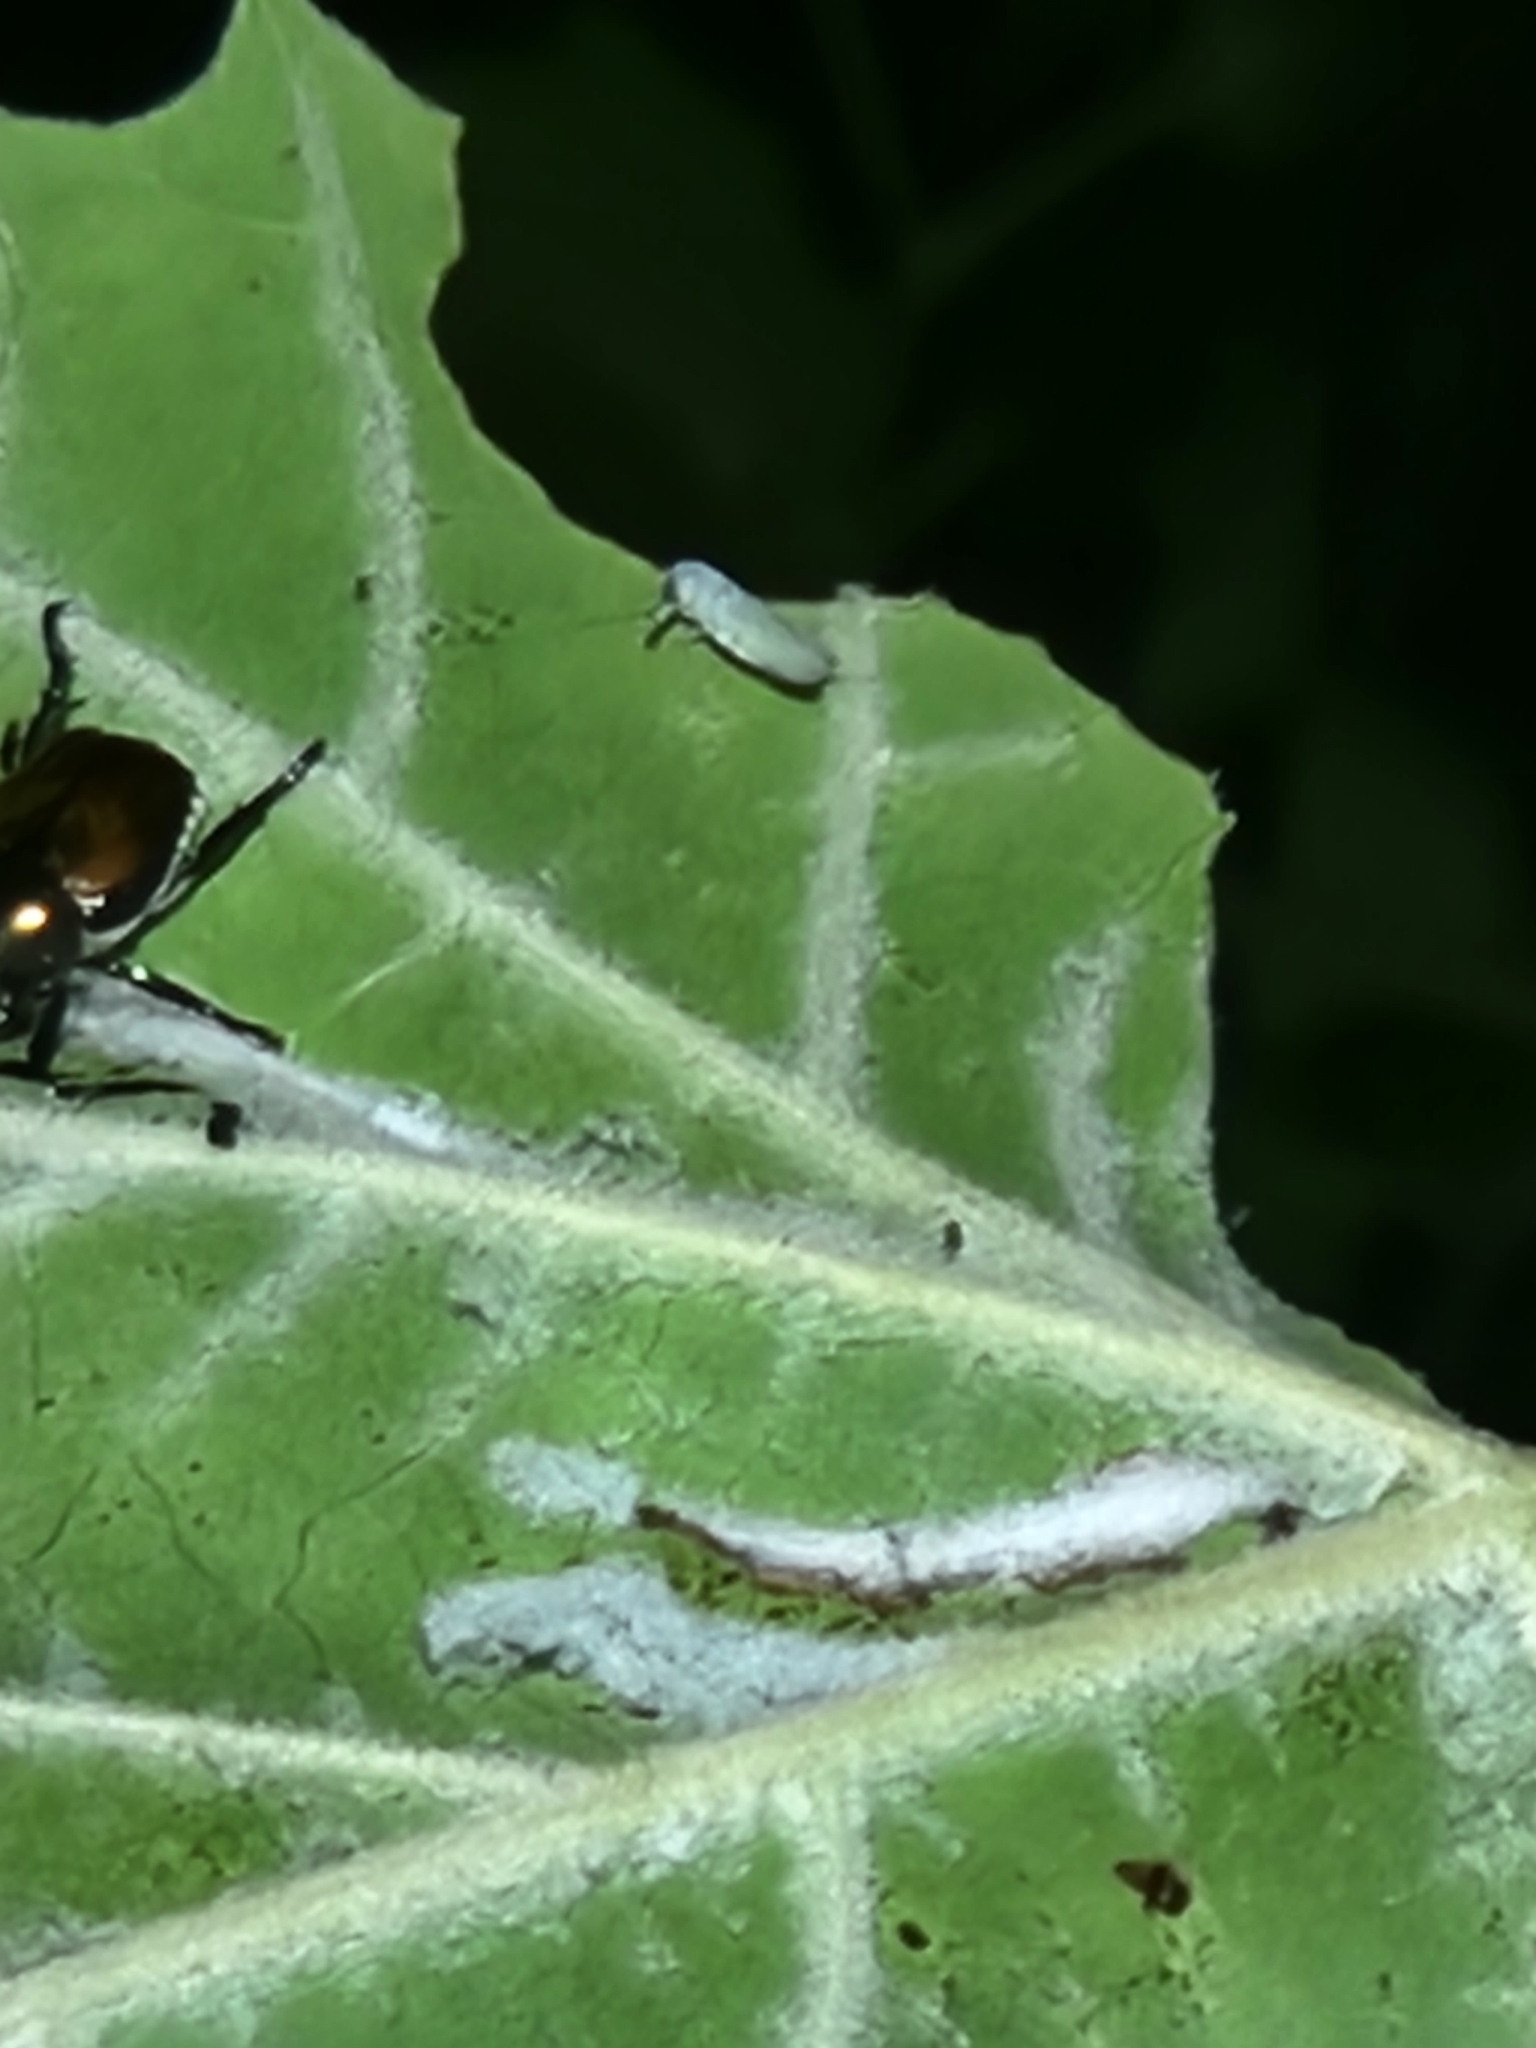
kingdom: Animalia
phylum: Arthropoda
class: Insecta
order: Coleoptera
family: Scarabaeidae
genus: Popillia
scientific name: Popillia japonica
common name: Japanese beetle
